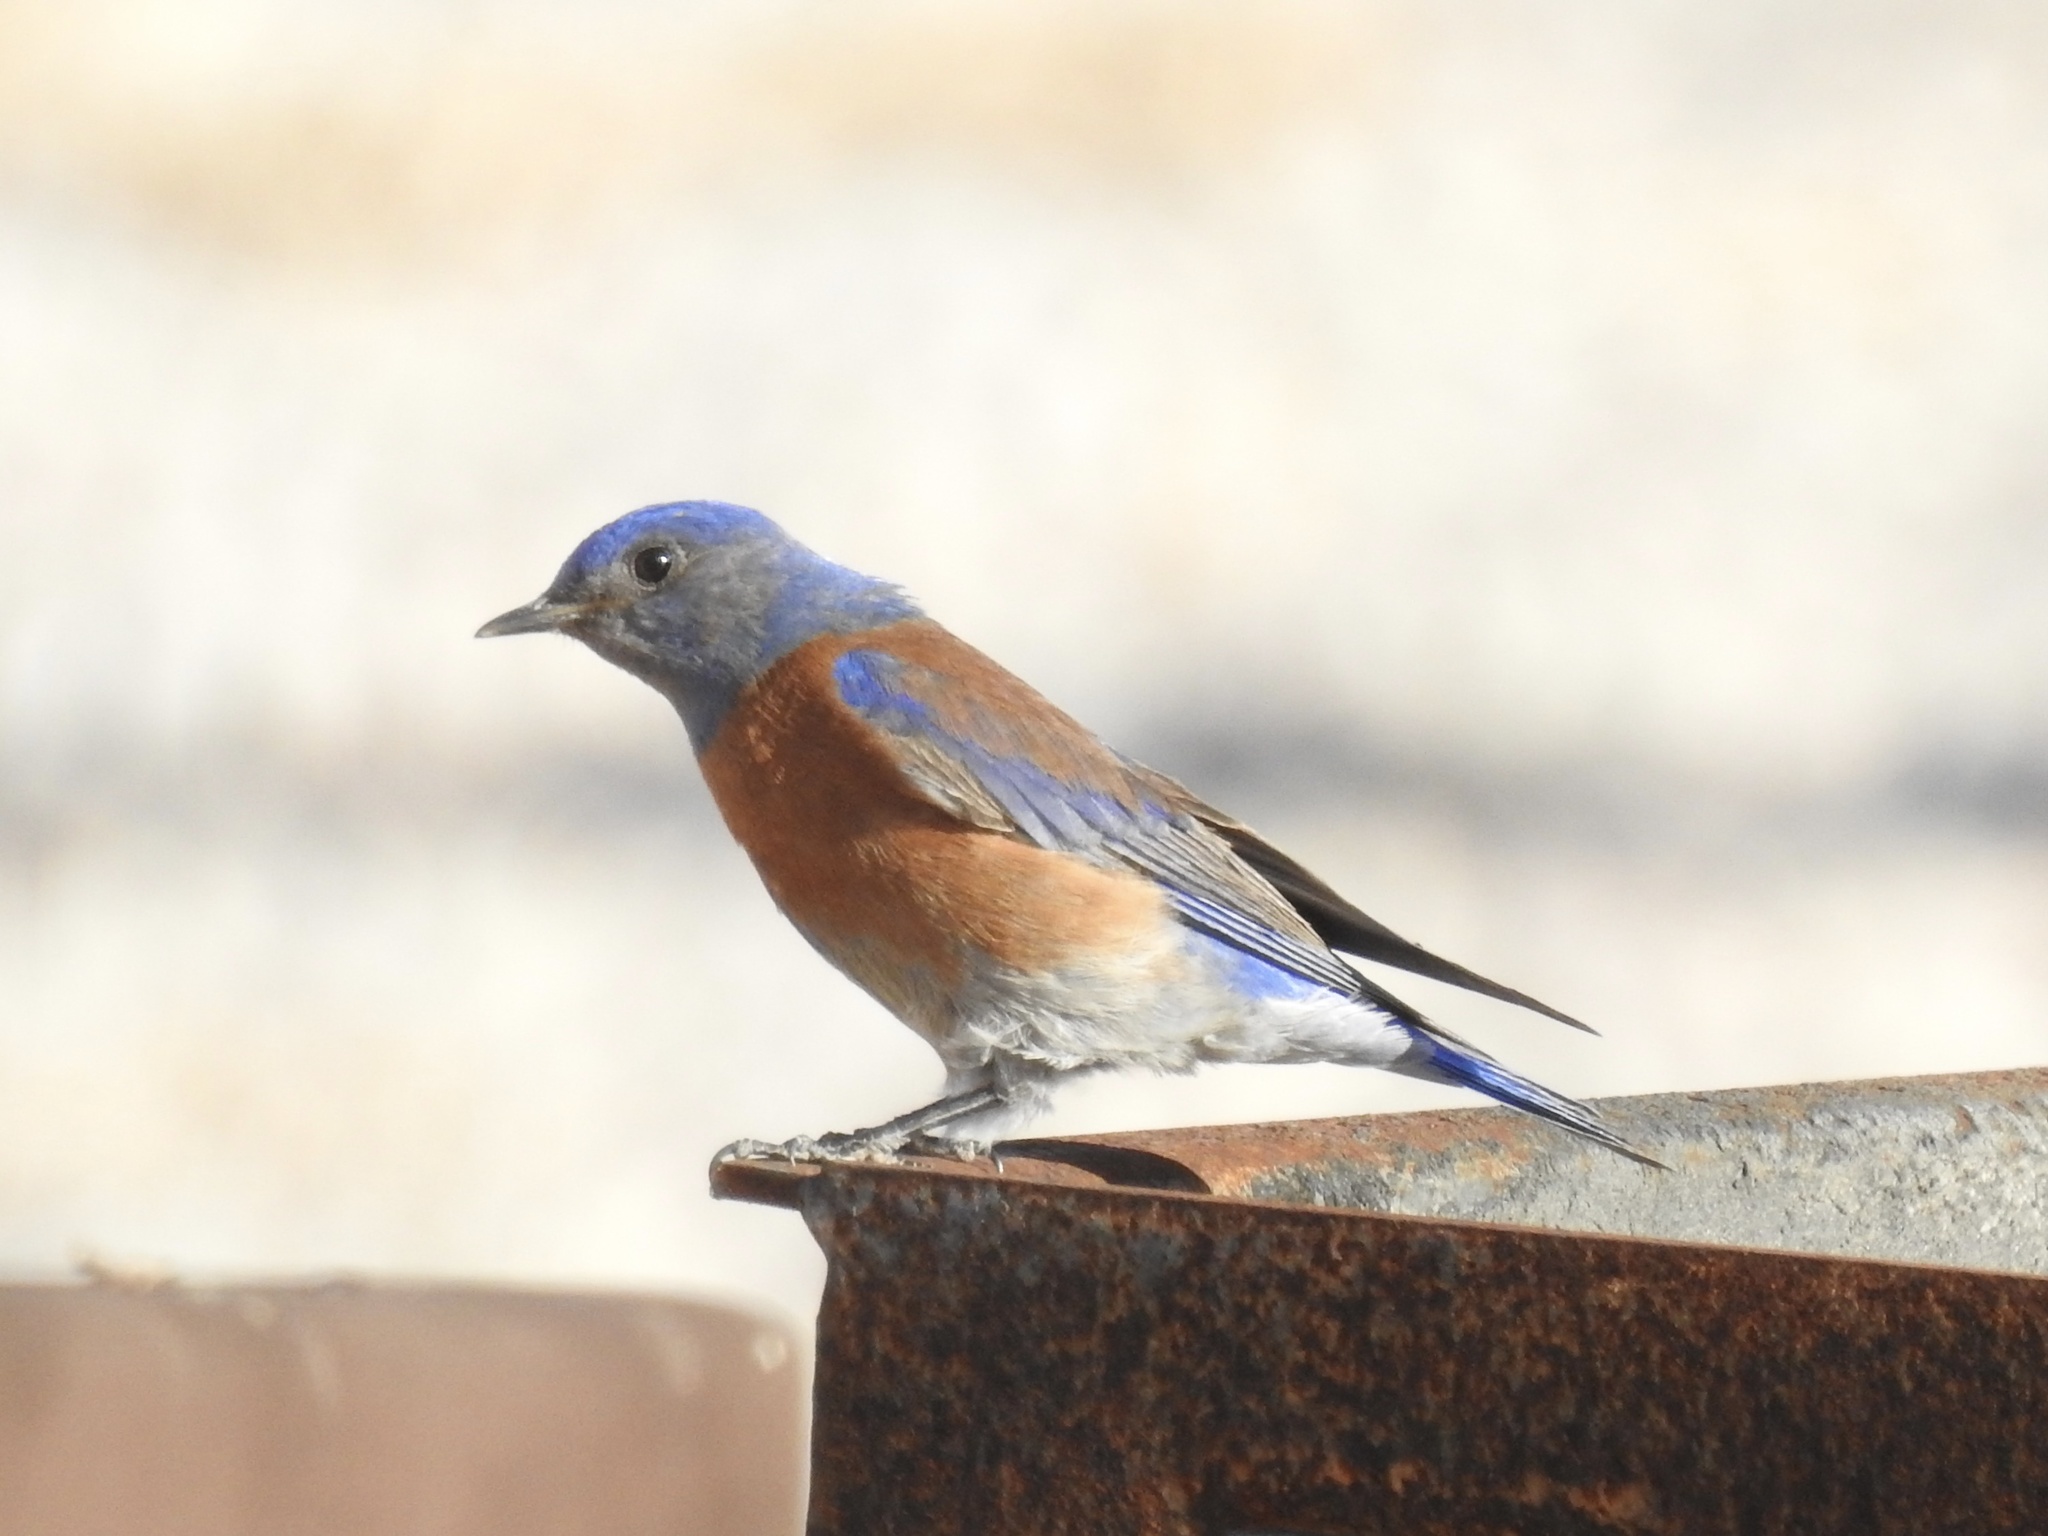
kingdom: Animalia
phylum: Chordata
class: Aves
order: Passeriformes
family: Turdidae
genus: Sialia
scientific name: Sialia mexicana
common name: Western bluebird
